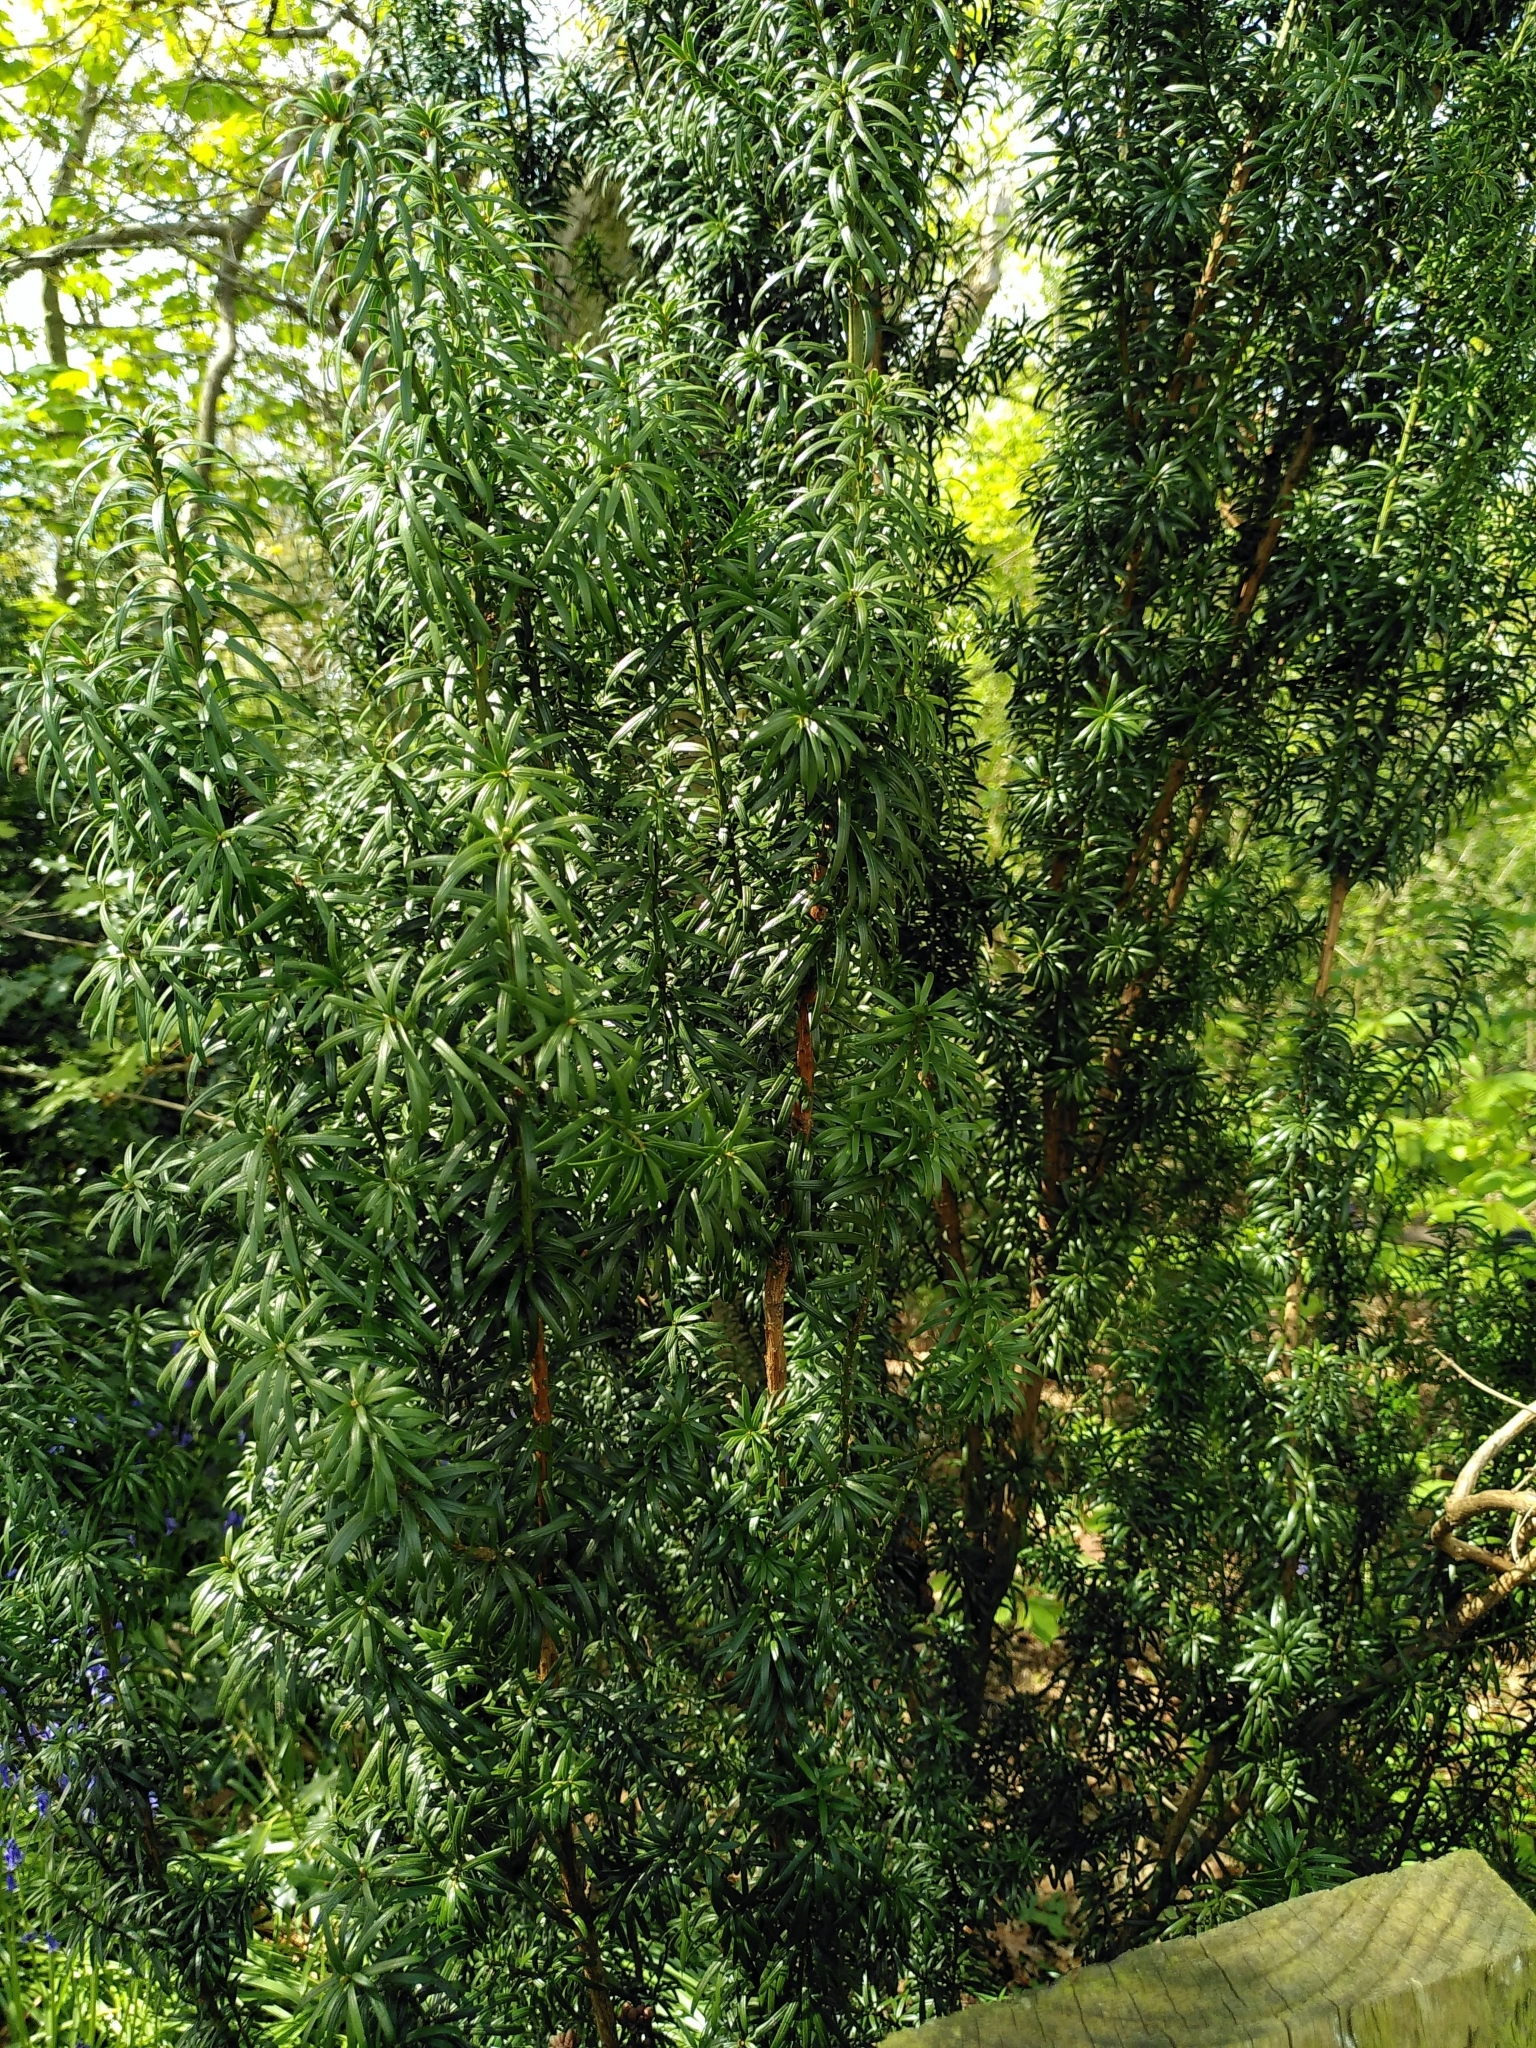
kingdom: Plantae
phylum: Tracheophyta
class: Pinopsida
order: Pinales
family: Taxaceae
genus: Taxus
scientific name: Taxus baccata
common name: Yew
